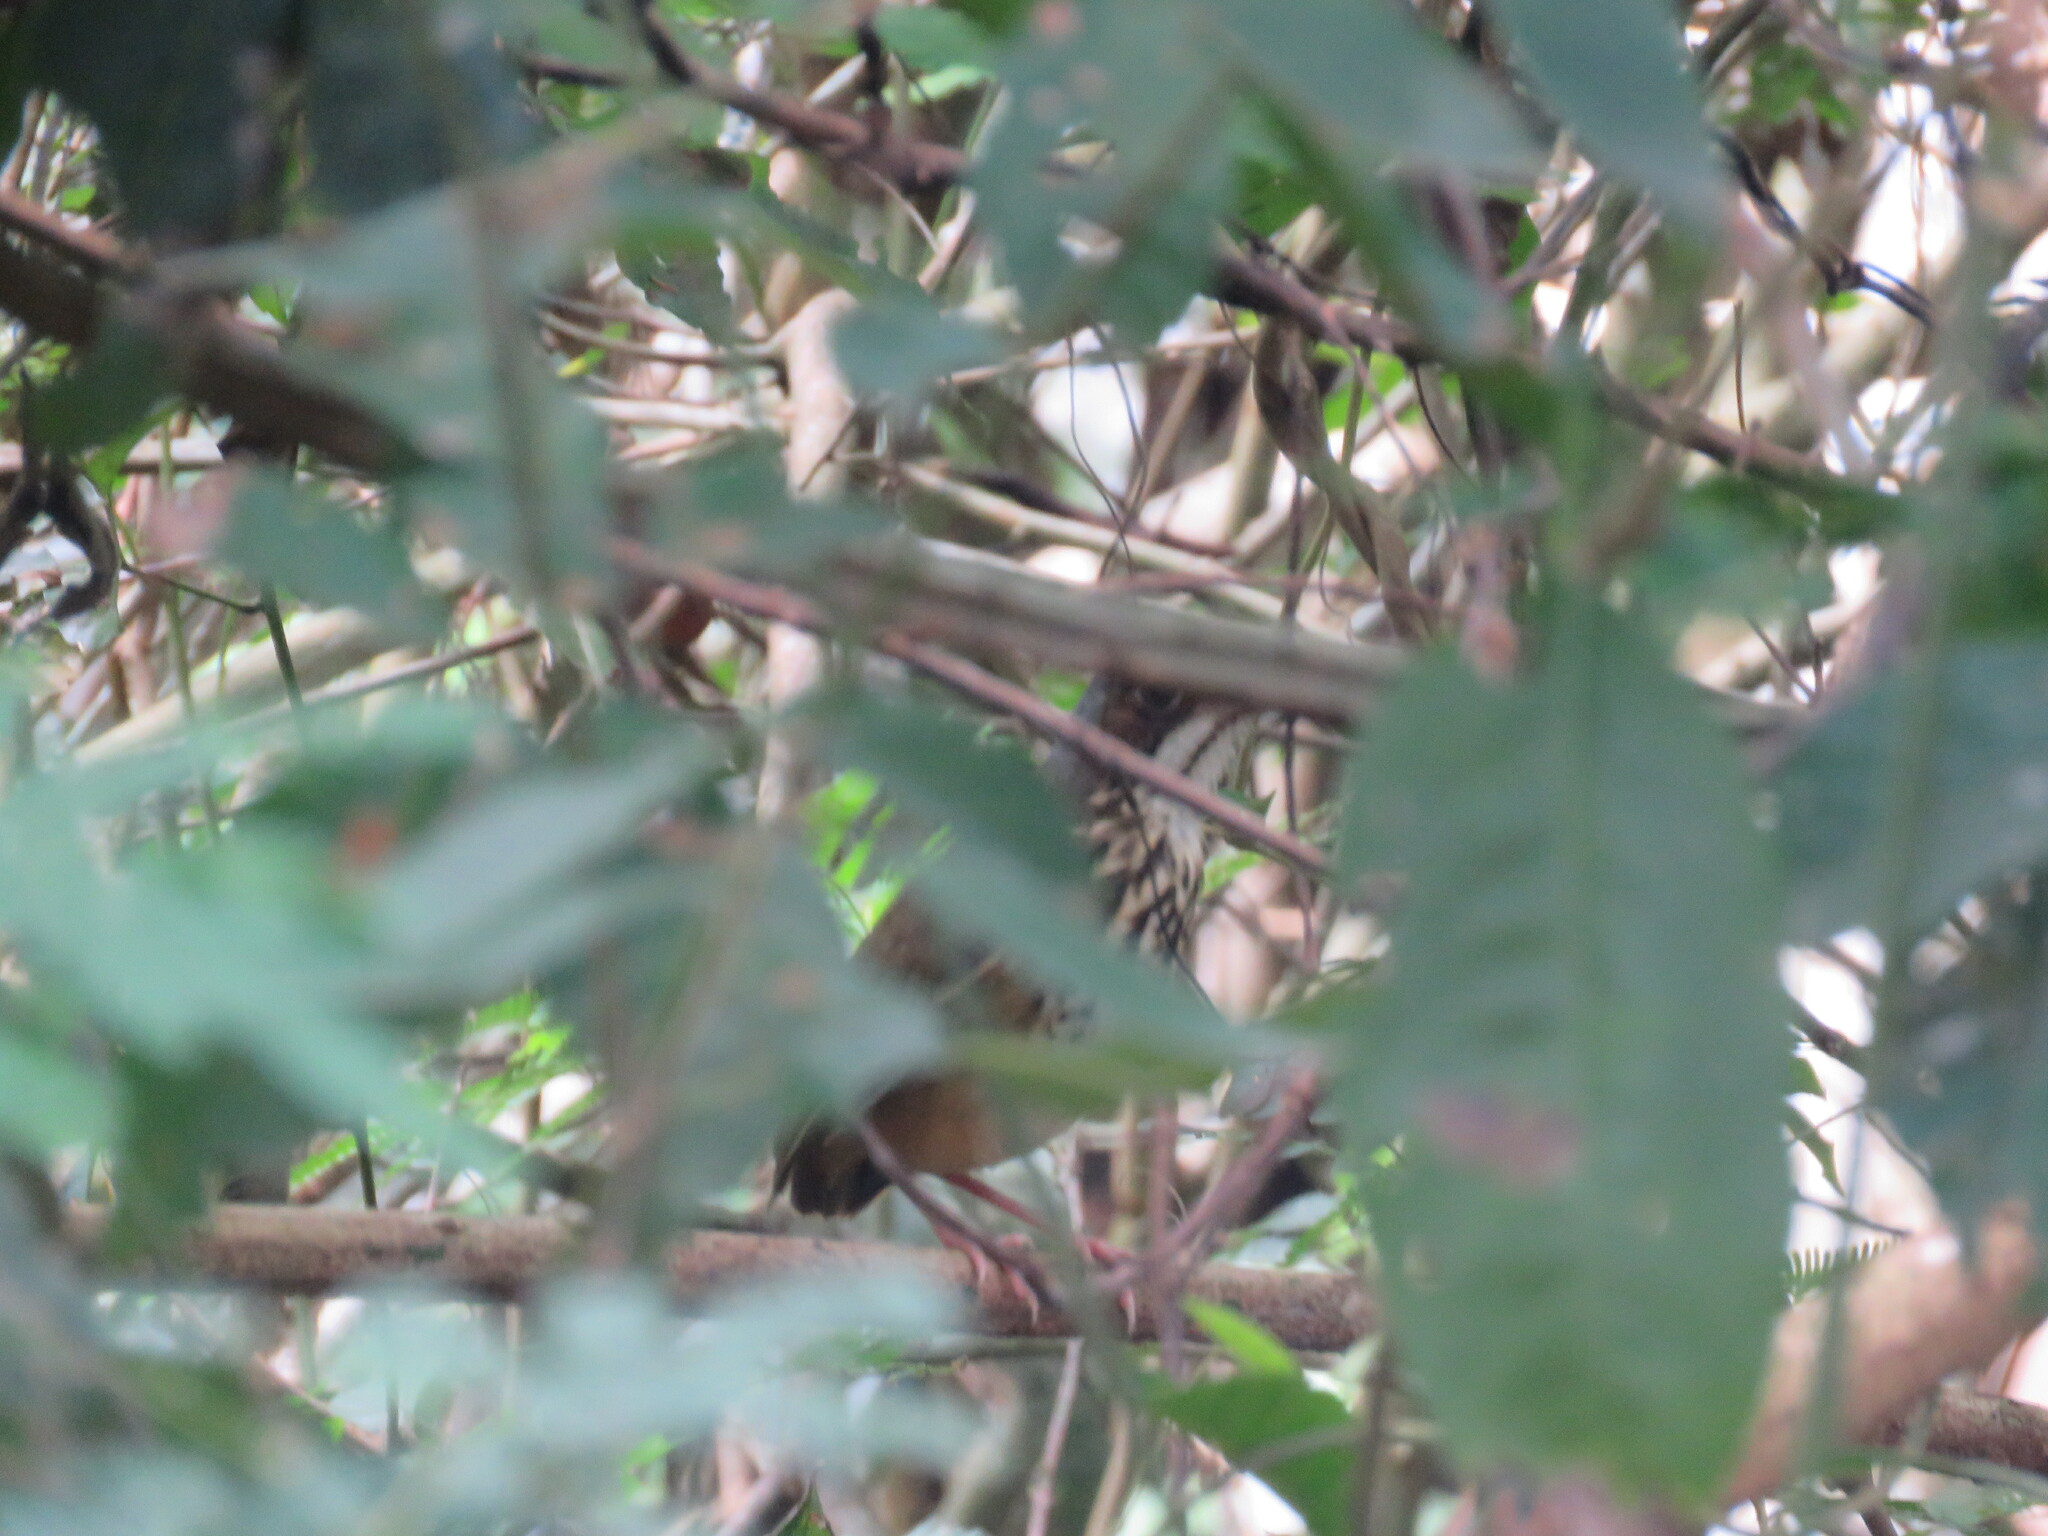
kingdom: Animalia
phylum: Chordata
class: Aves
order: Passeriformes
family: Grallariidae
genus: Hylopezus
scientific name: Hylopezus auricularis
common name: Masked antpitta
